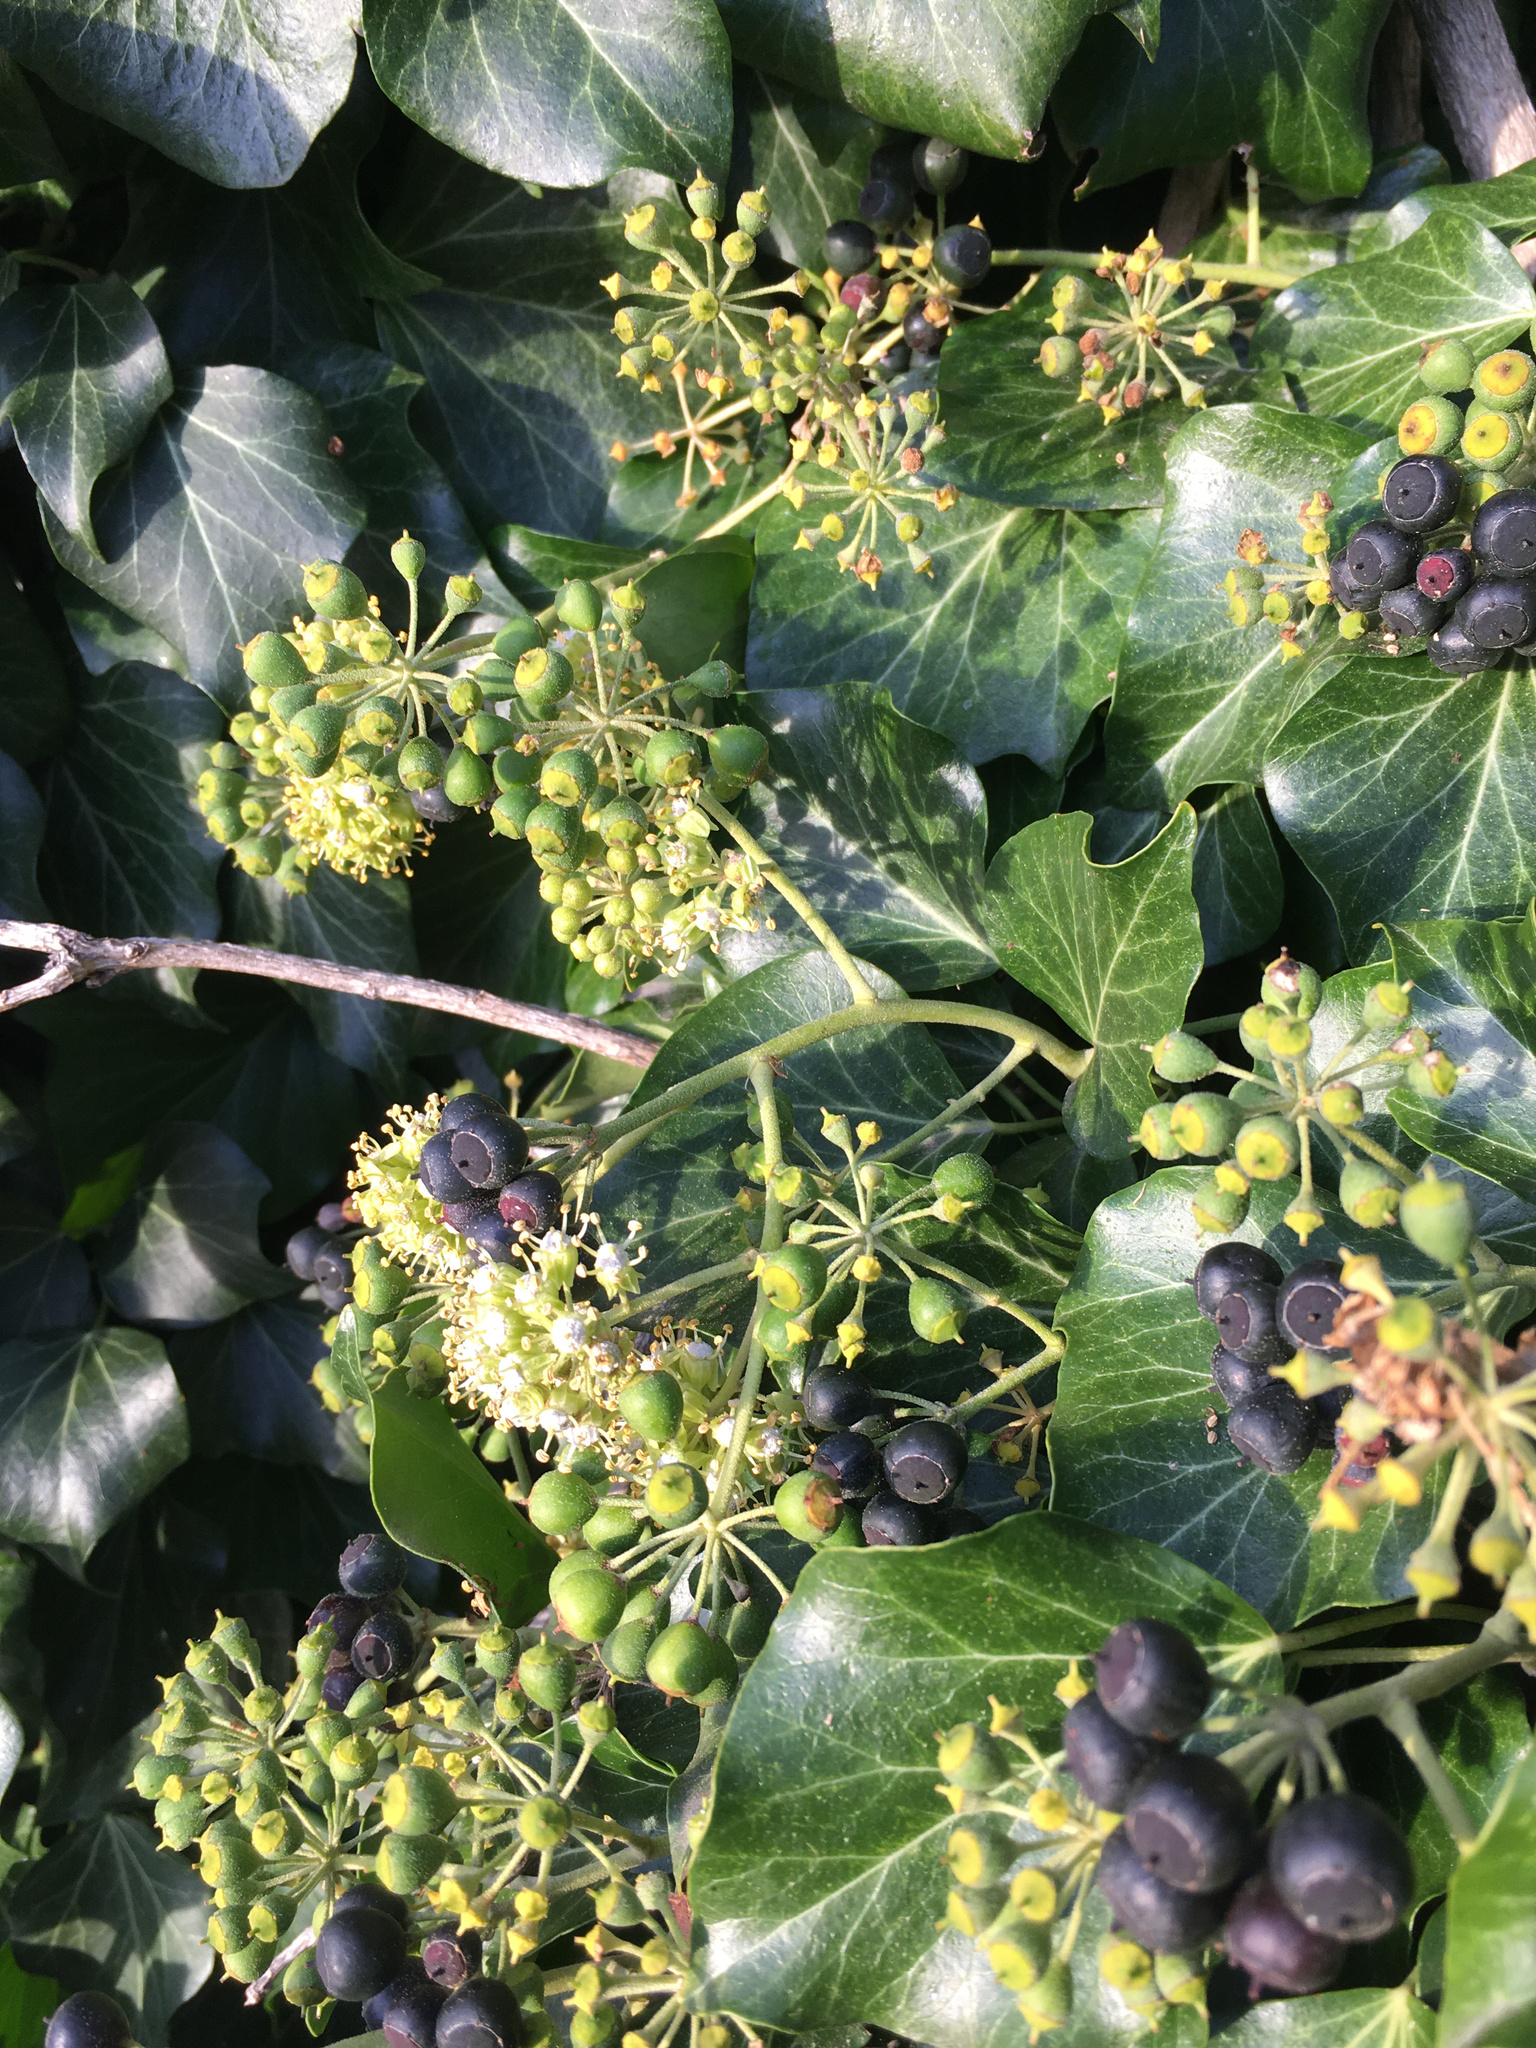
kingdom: Plantae
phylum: Tracheophyta
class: Magnoliopsida
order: Apiales
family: Araliaceae
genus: Hedera
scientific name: Hedera helix
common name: Ivy
